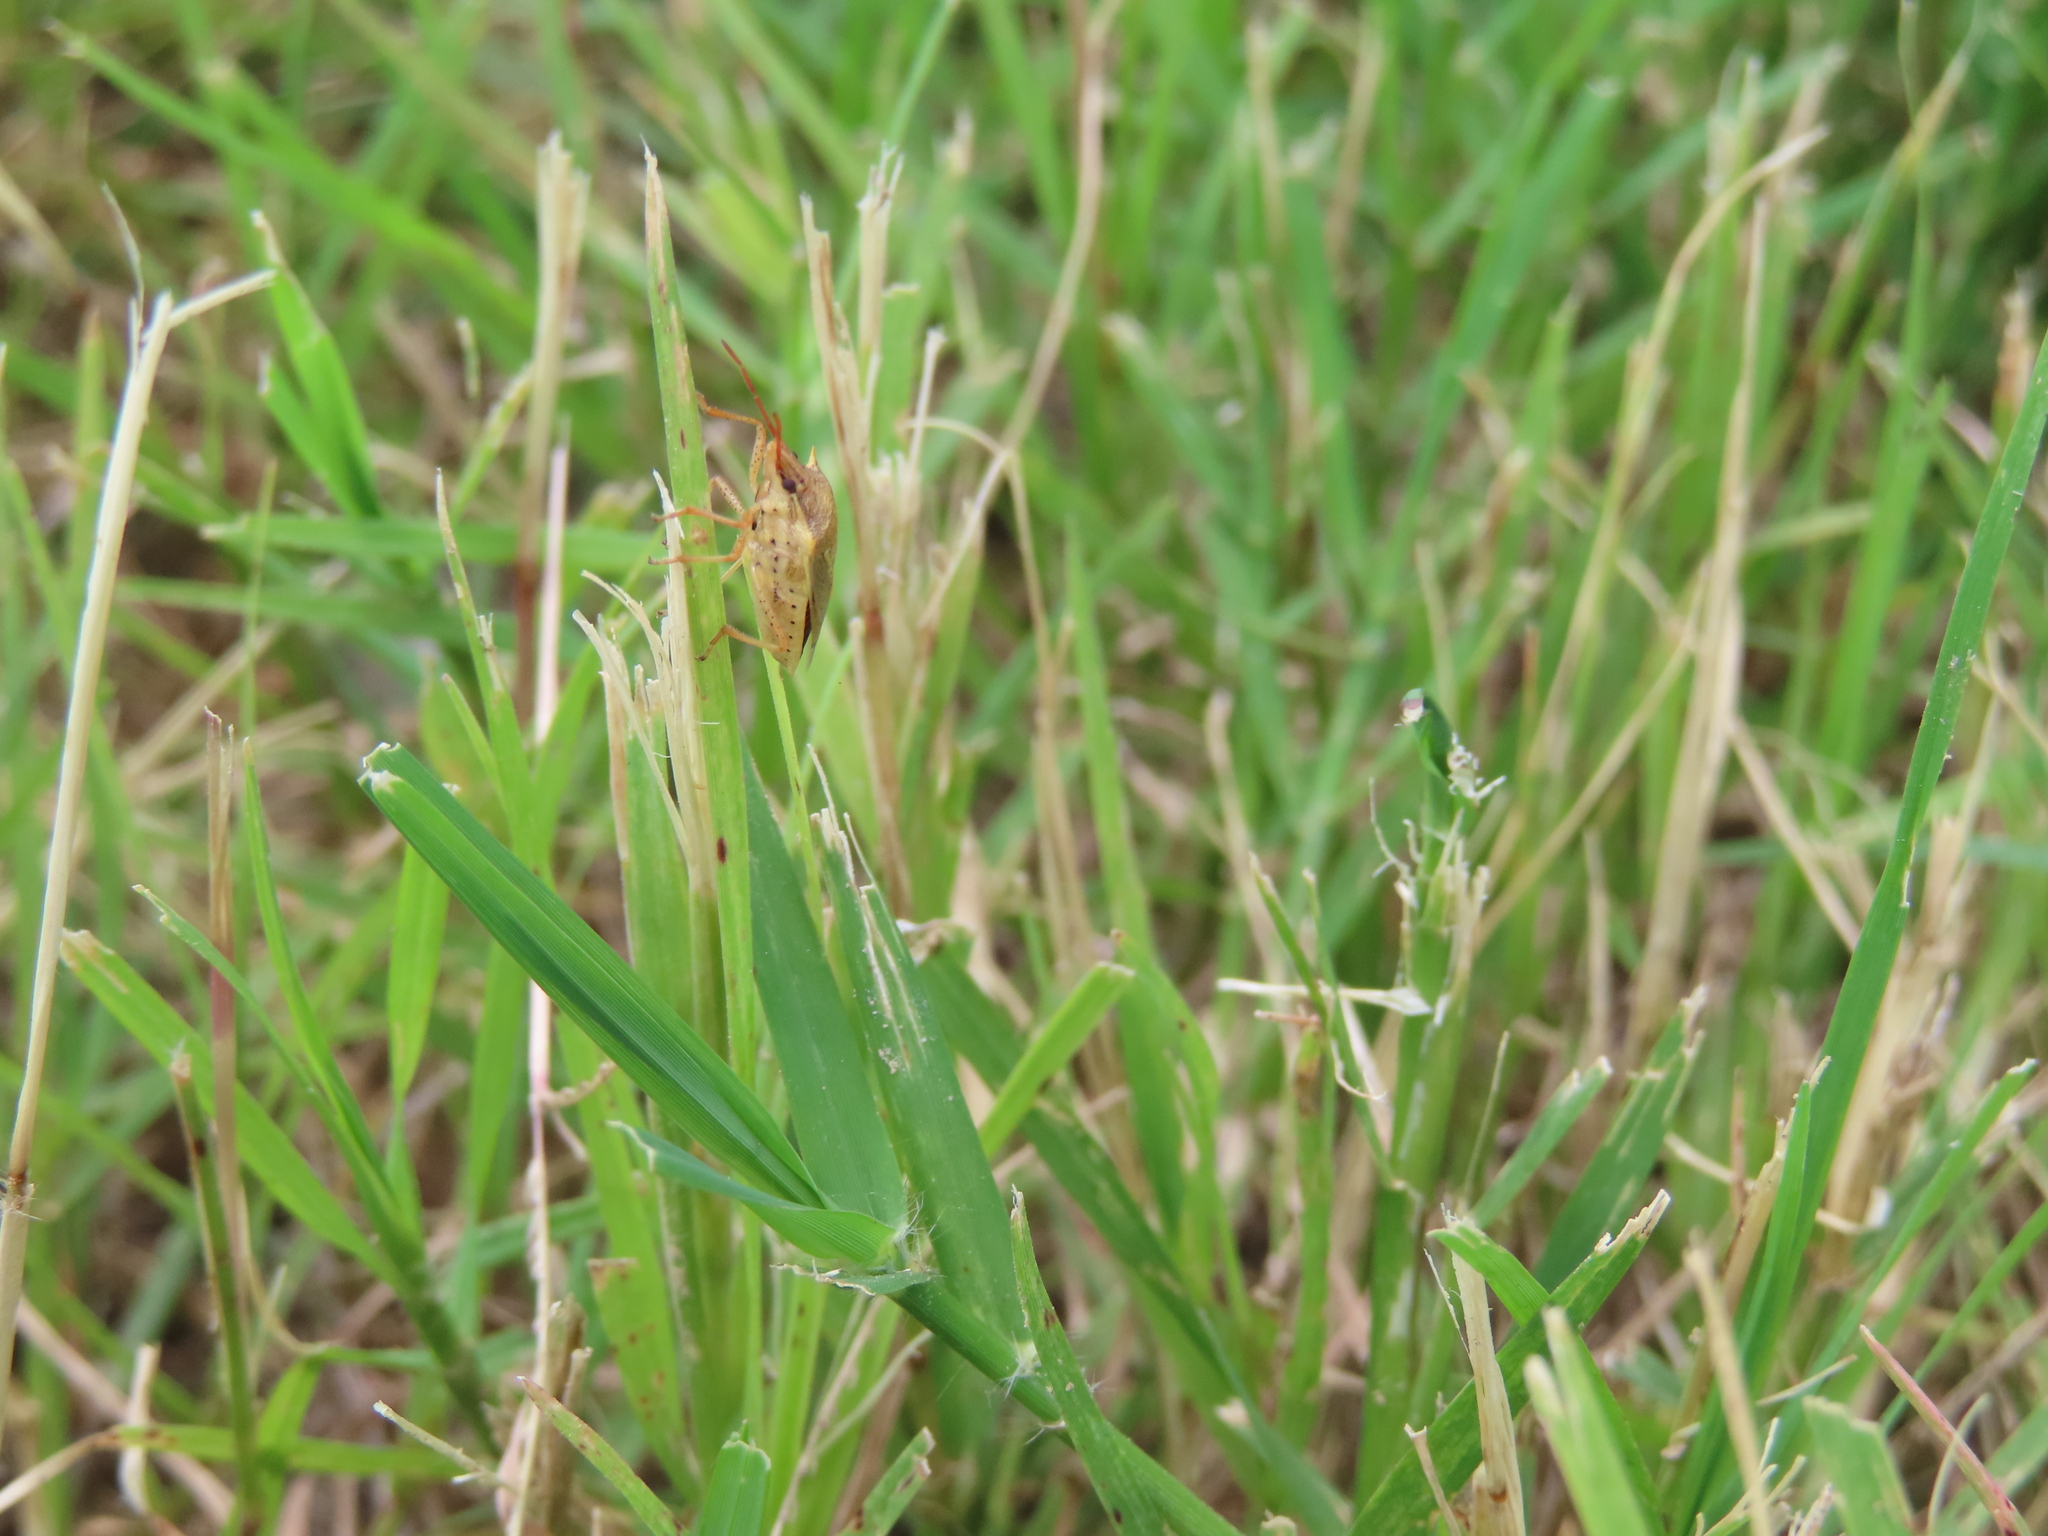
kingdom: Animalia
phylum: Arthropoda
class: Insecta
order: Hemiptera
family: Pentatomidae
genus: Oebalus
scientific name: Oebalus pugnax
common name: Rice stink bug
